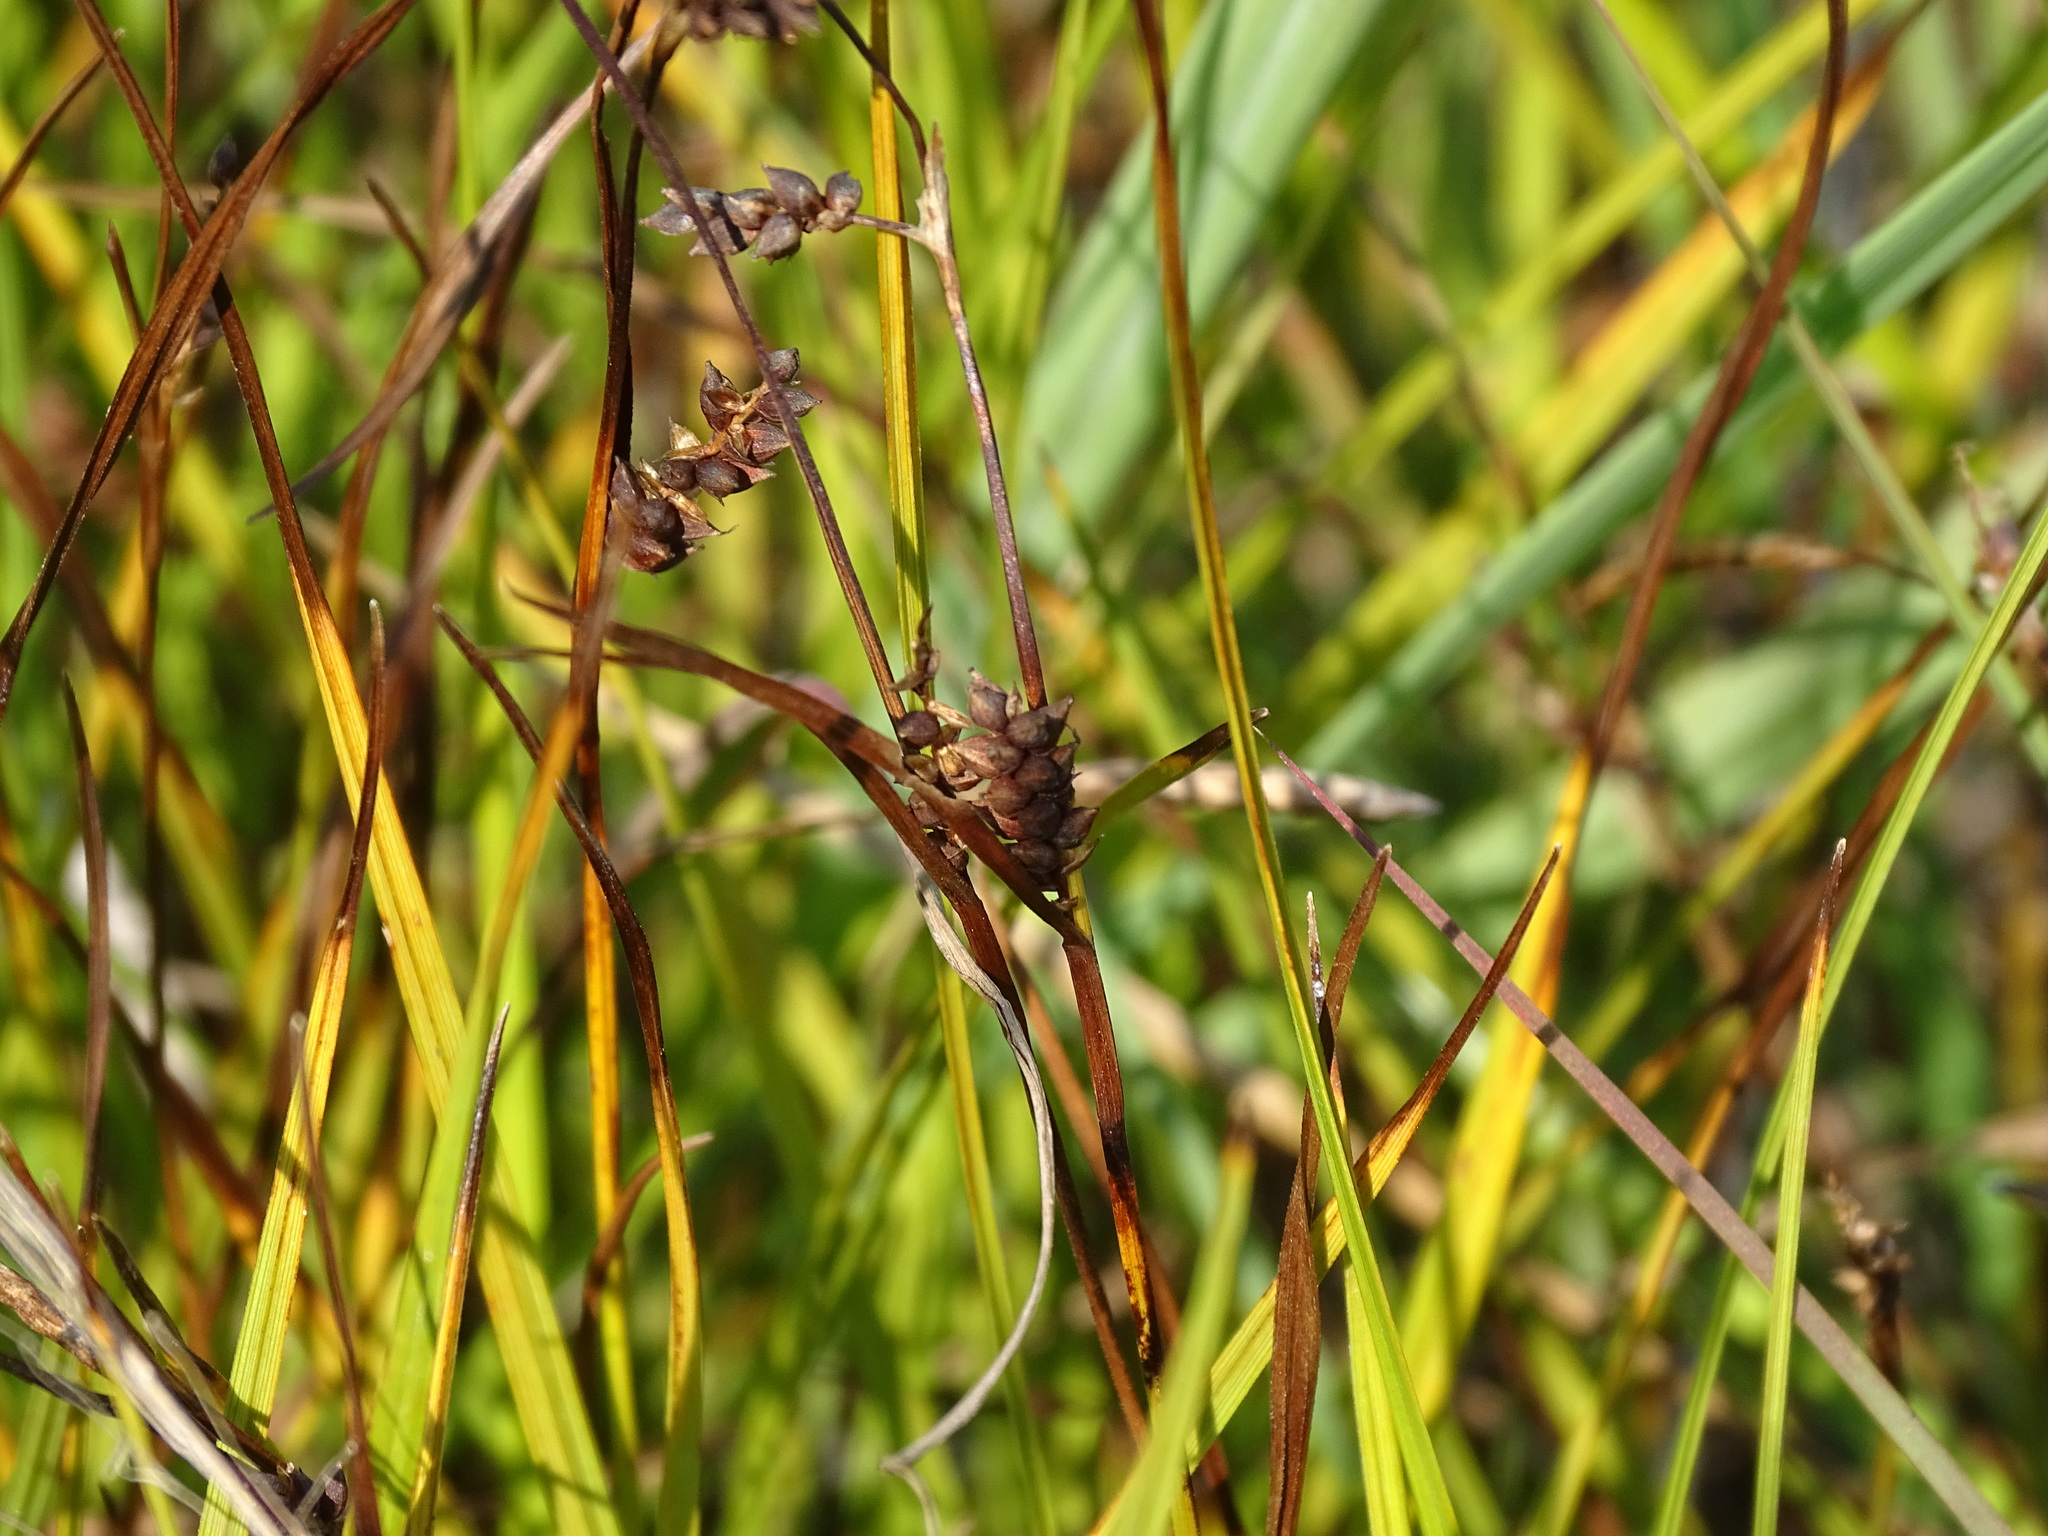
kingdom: Plantae
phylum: Tracheophyta
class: Liliopsida
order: Poales
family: Cyperaceae
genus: Carex
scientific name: Carex crawei
